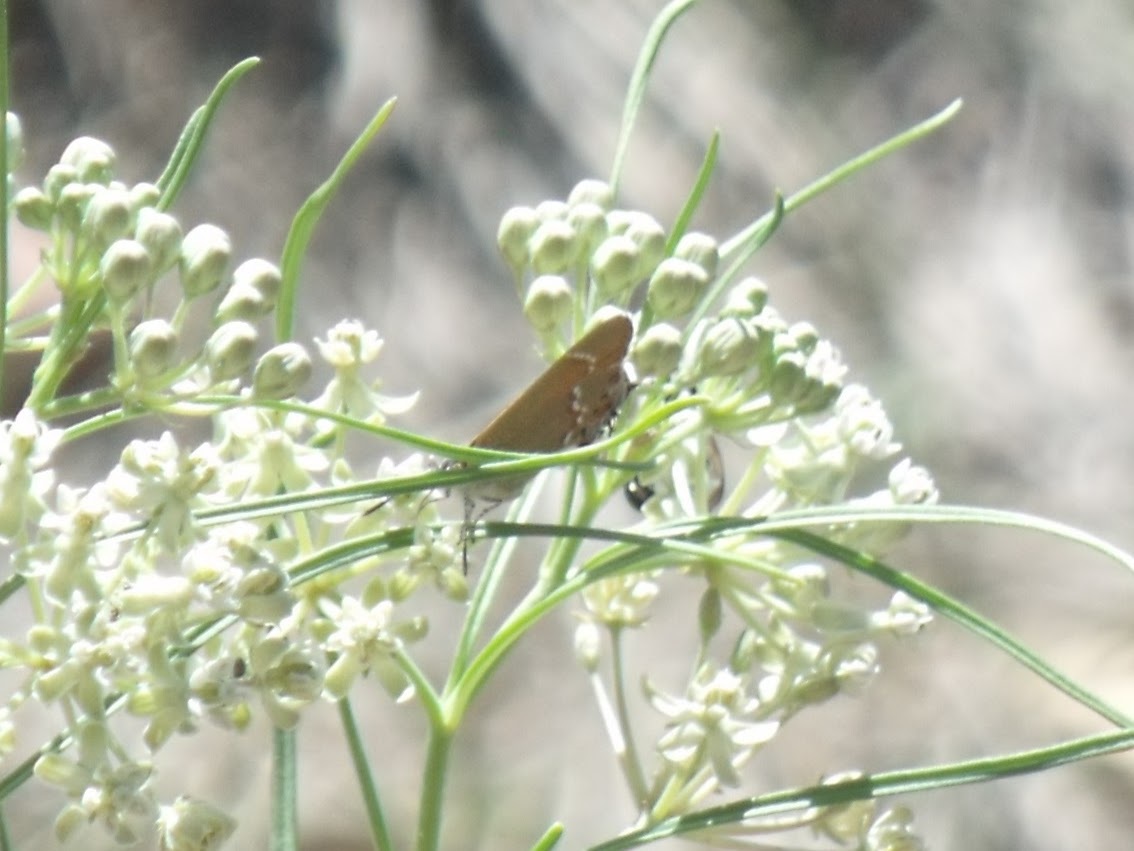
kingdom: Animalia
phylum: Arthropoda
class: Insecta
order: Lepidoptera
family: Lycaenidae
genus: Mitoura
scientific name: Mitoura gryneus
